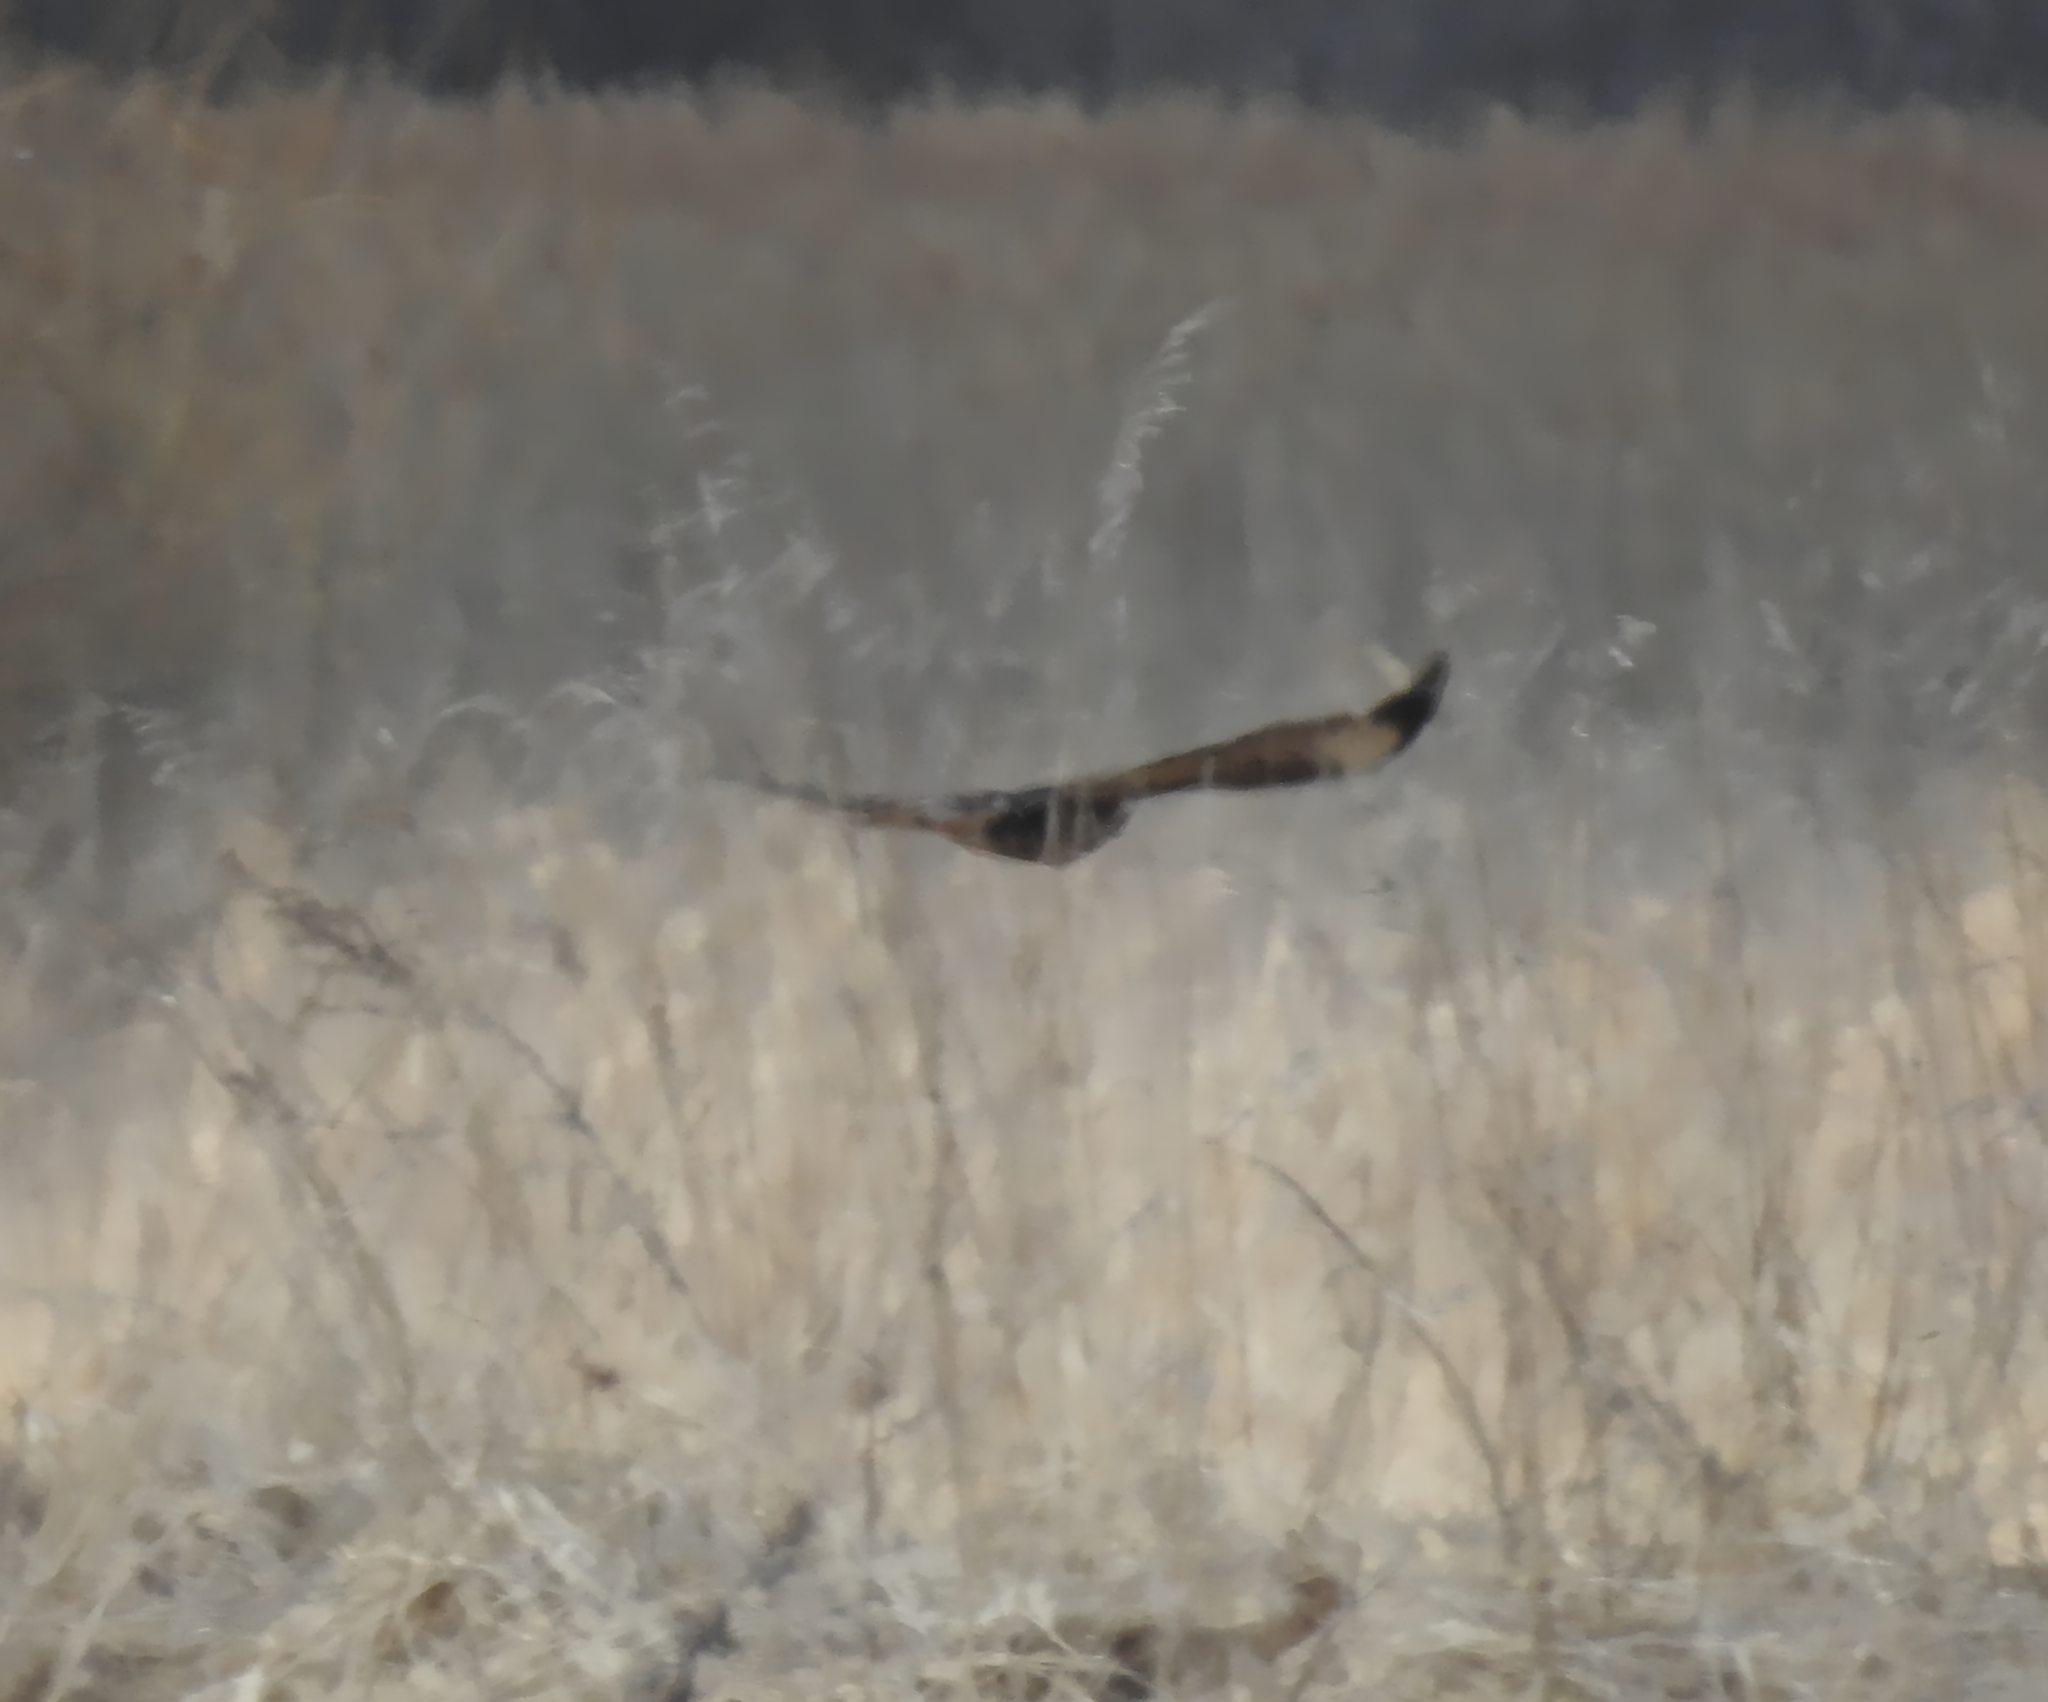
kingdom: Animalia
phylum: Chordata
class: Aves
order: Accipitriformes
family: Accipitridae
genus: Buteo
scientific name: Buteo buteo
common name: Common buzzard
